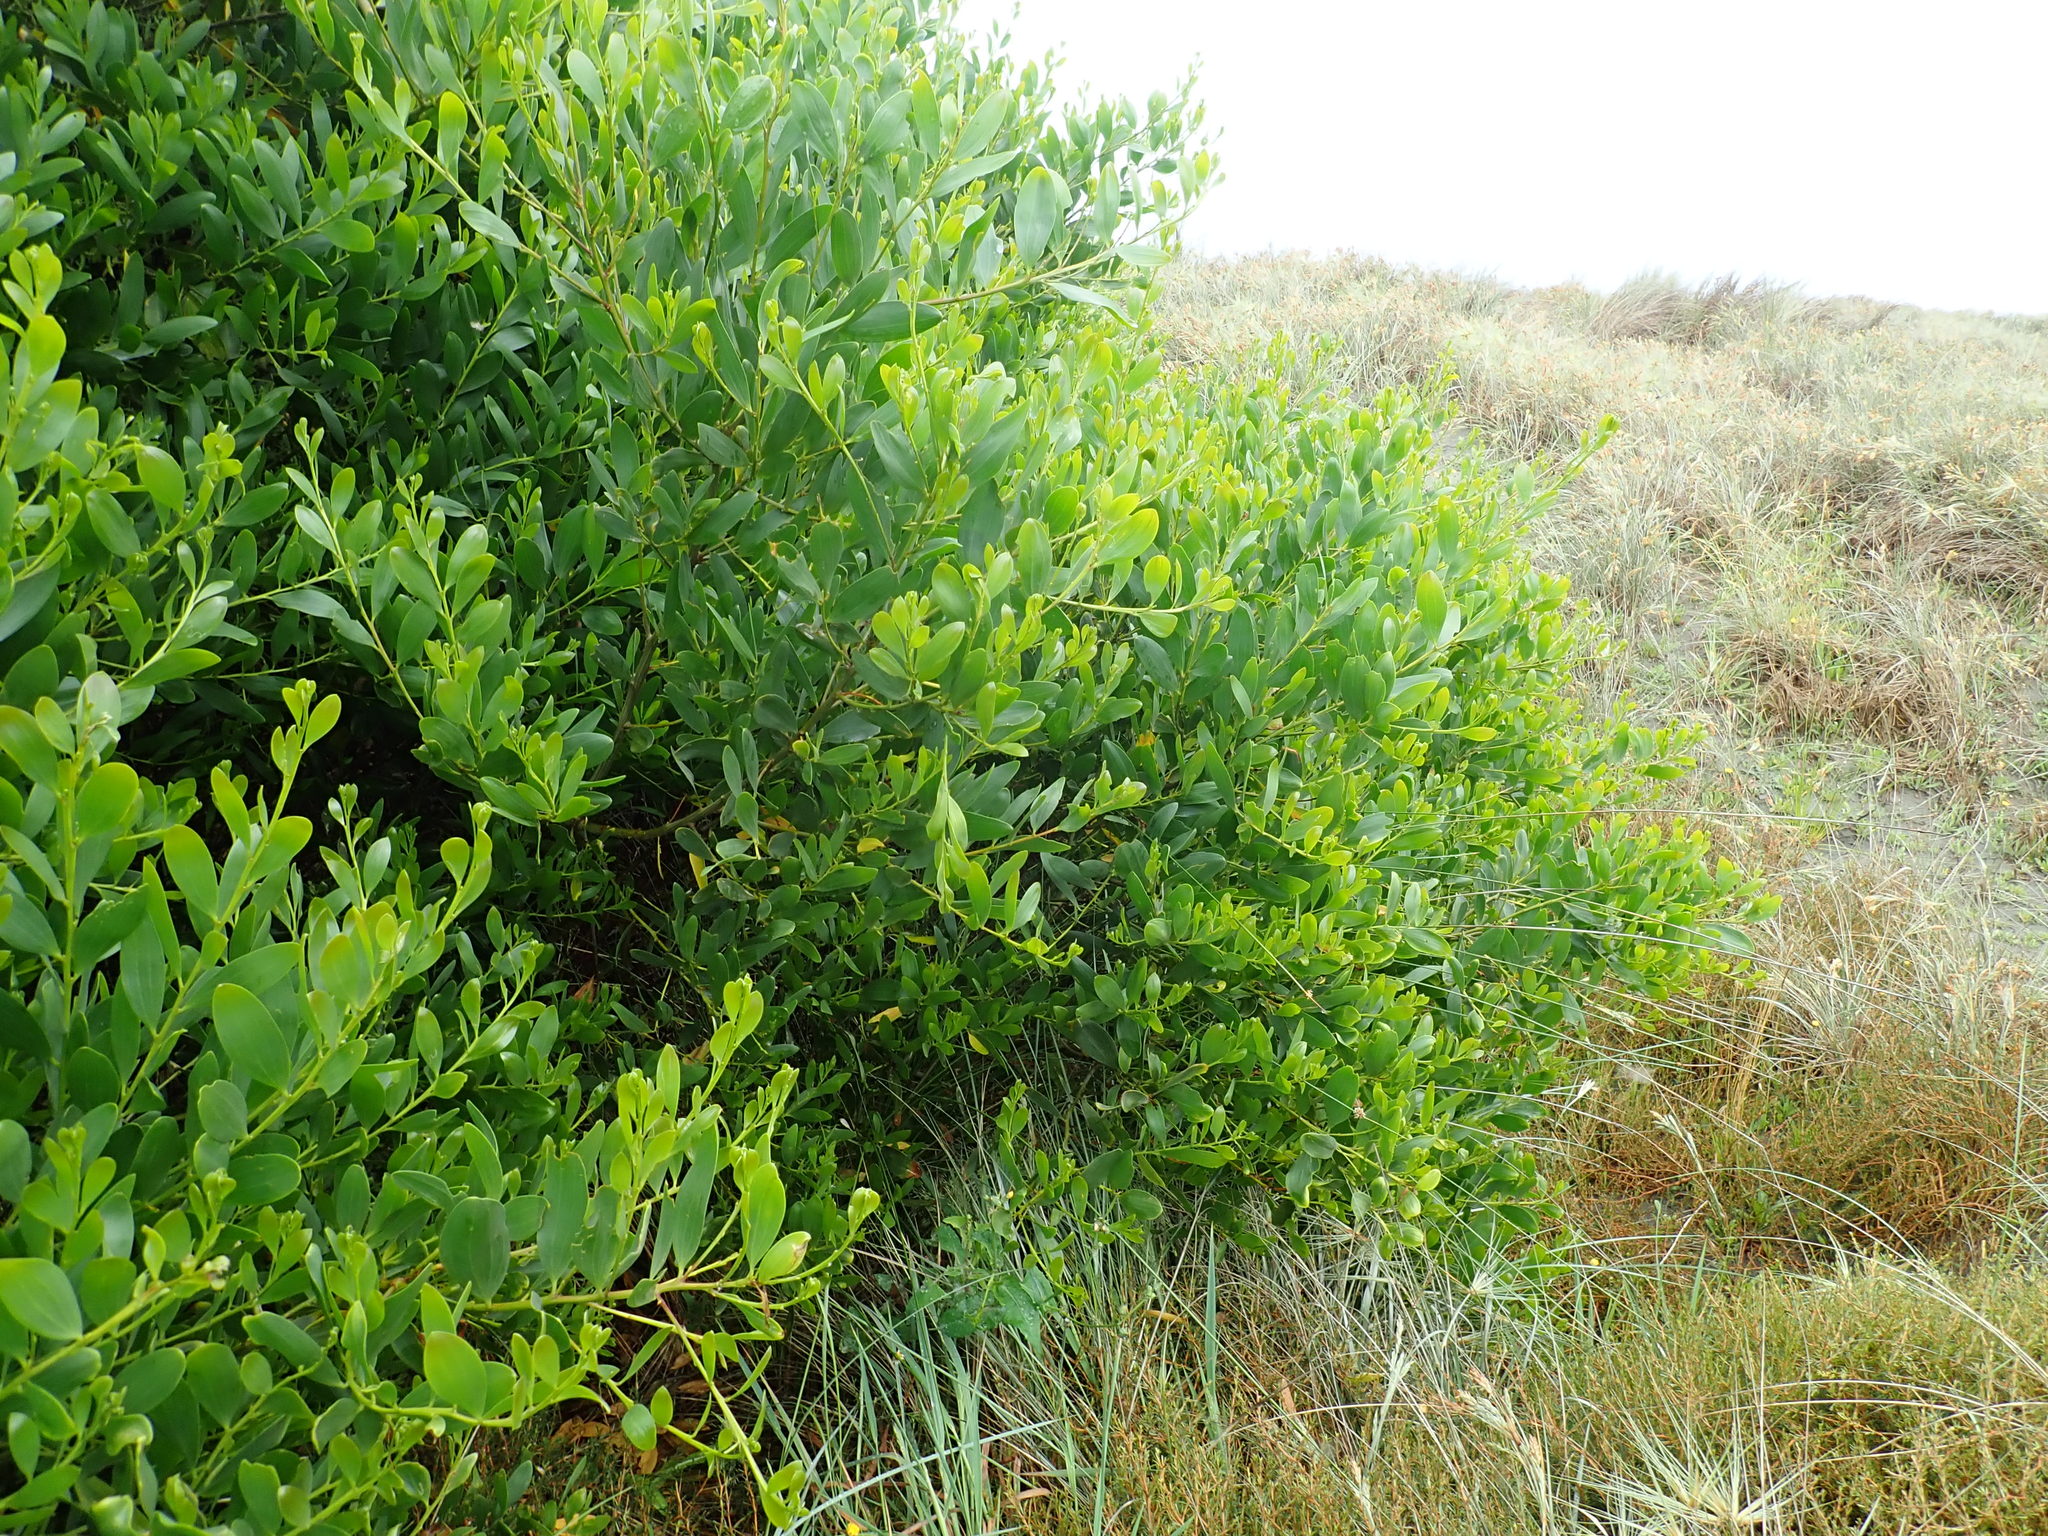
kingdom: Plantae
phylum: Tracheophyta
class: Magnoliopsida
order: Fabales
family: Fabaceae
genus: Acacia
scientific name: Acacia longifolia
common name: Sydney golden wattle
